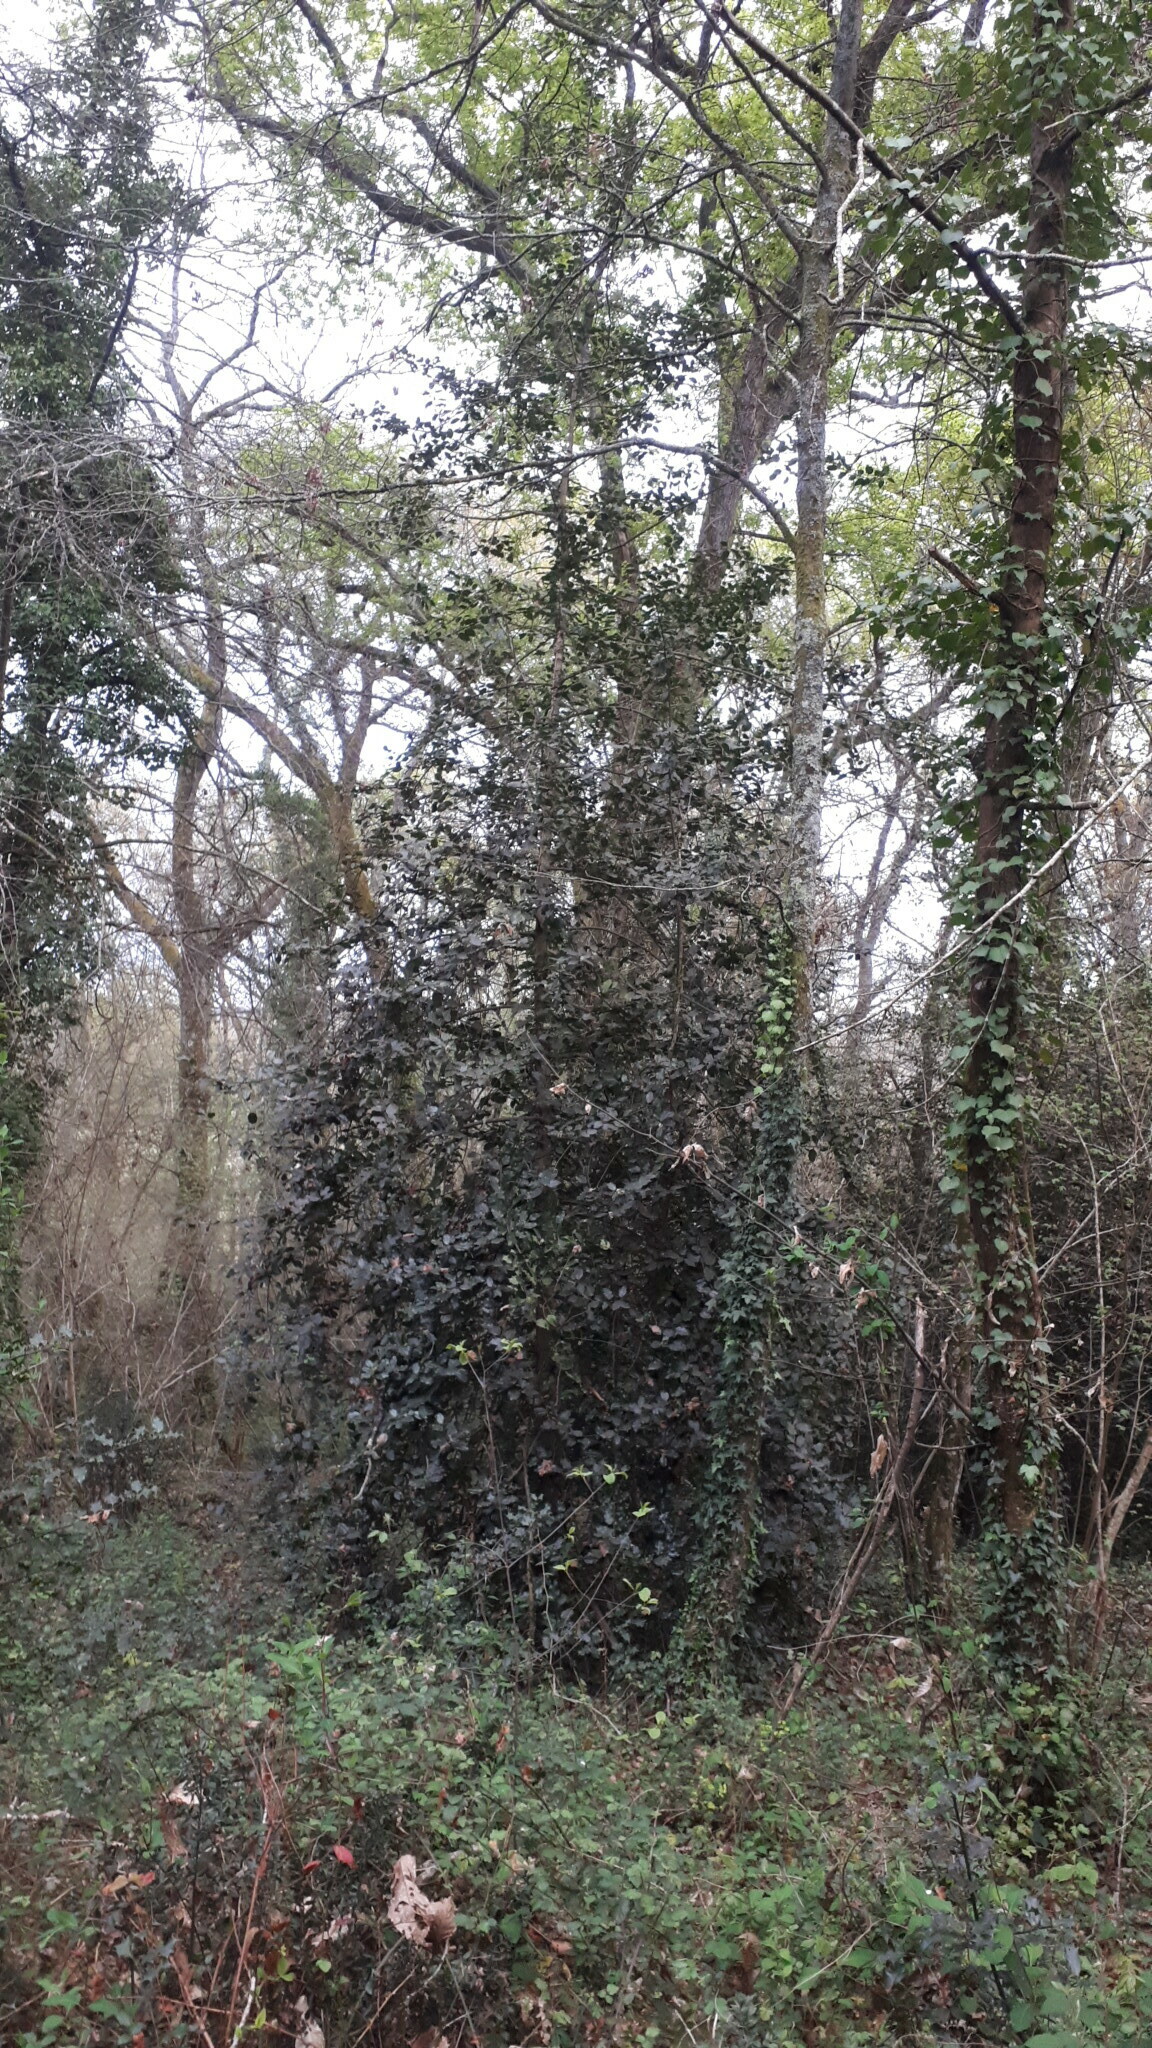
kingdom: Plantae
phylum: Tracheophyta
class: Magnoliopsida
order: Aquifoliales
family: Aquifoliaceae
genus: Ilex
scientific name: Ilex aquifolium
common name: English holly
